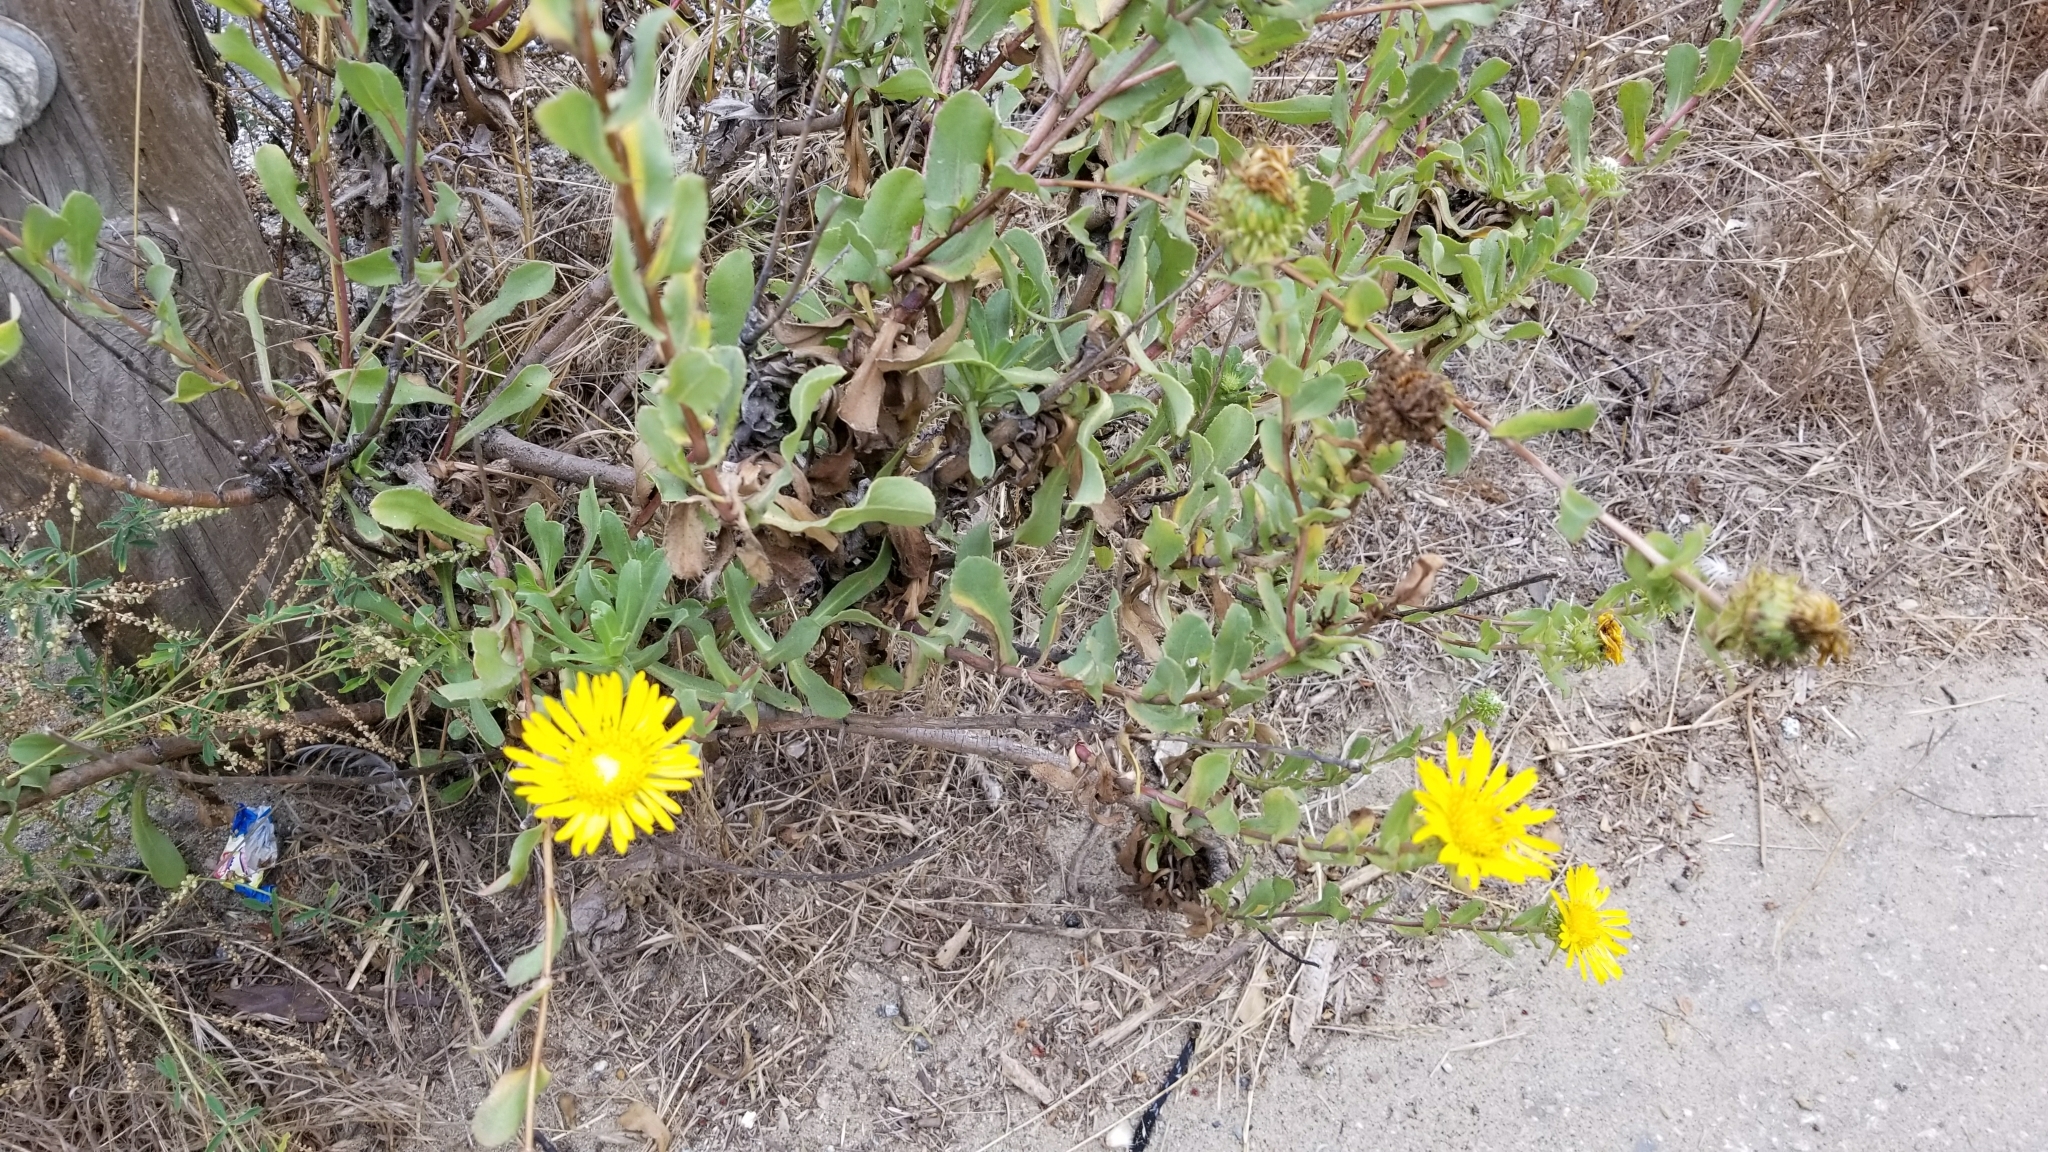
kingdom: Plantae
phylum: Tracheophyta
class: Magnoliopsida
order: Asterales
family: Asteraceae
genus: Grindelia
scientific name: Grindelia hirsutula
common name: Hairy gumweed
